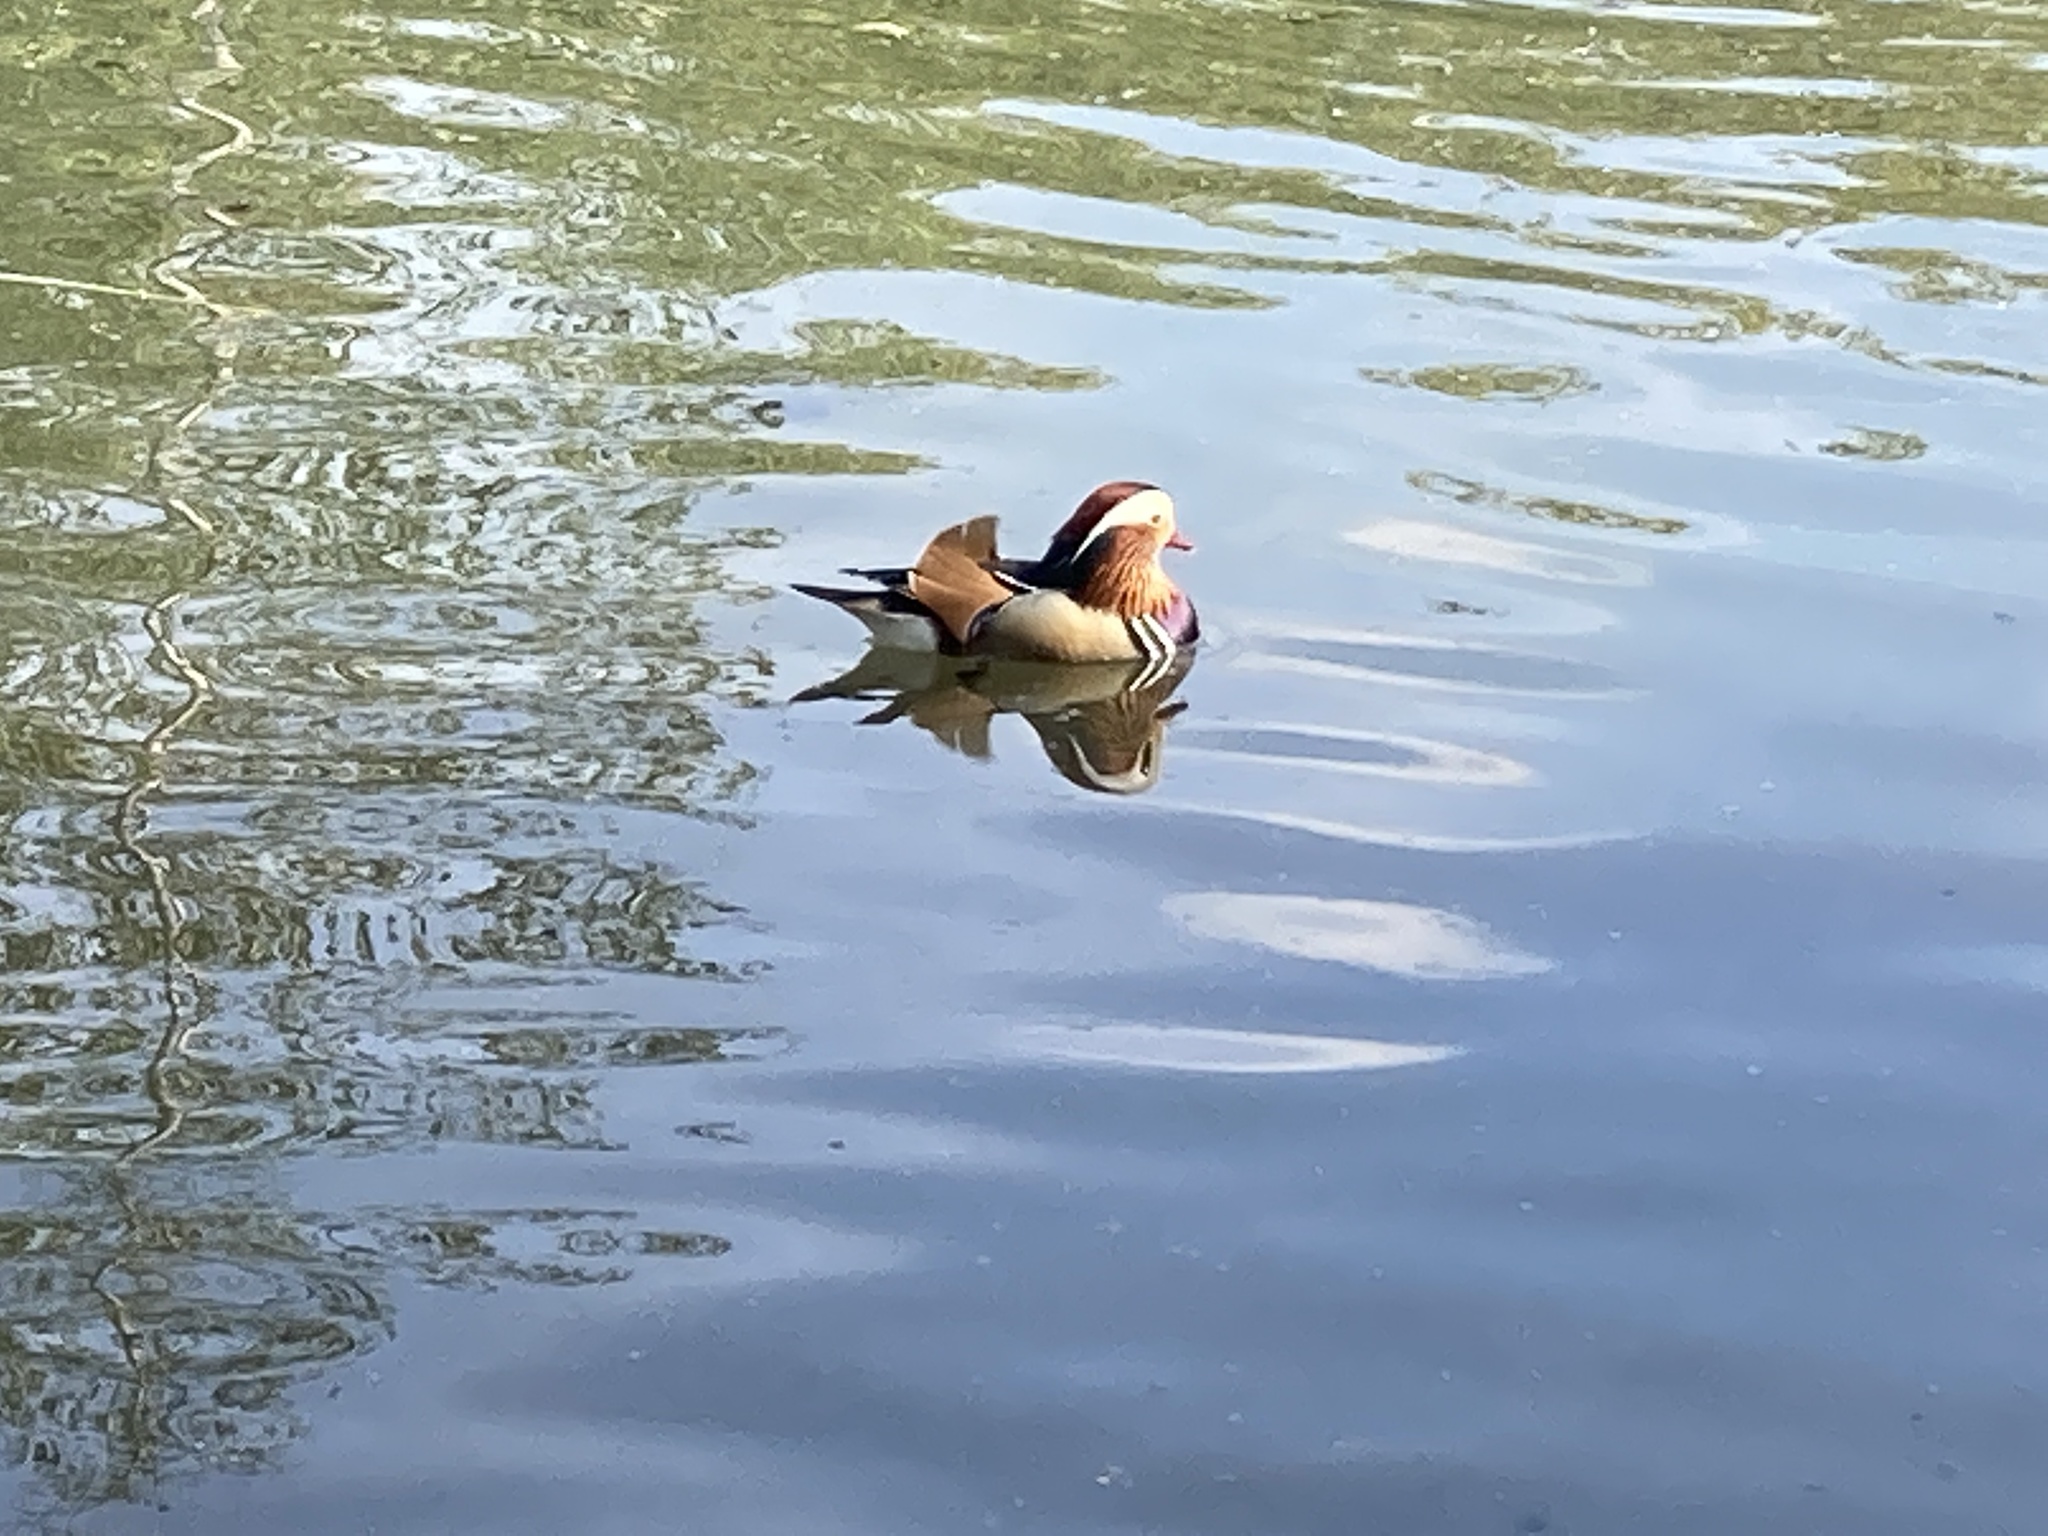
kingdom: Animalia
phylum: Chordata
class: Aves
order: Anseriformes
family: Anatidae
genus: Aix
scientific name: Aix galericulata
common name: Mandarin duck
